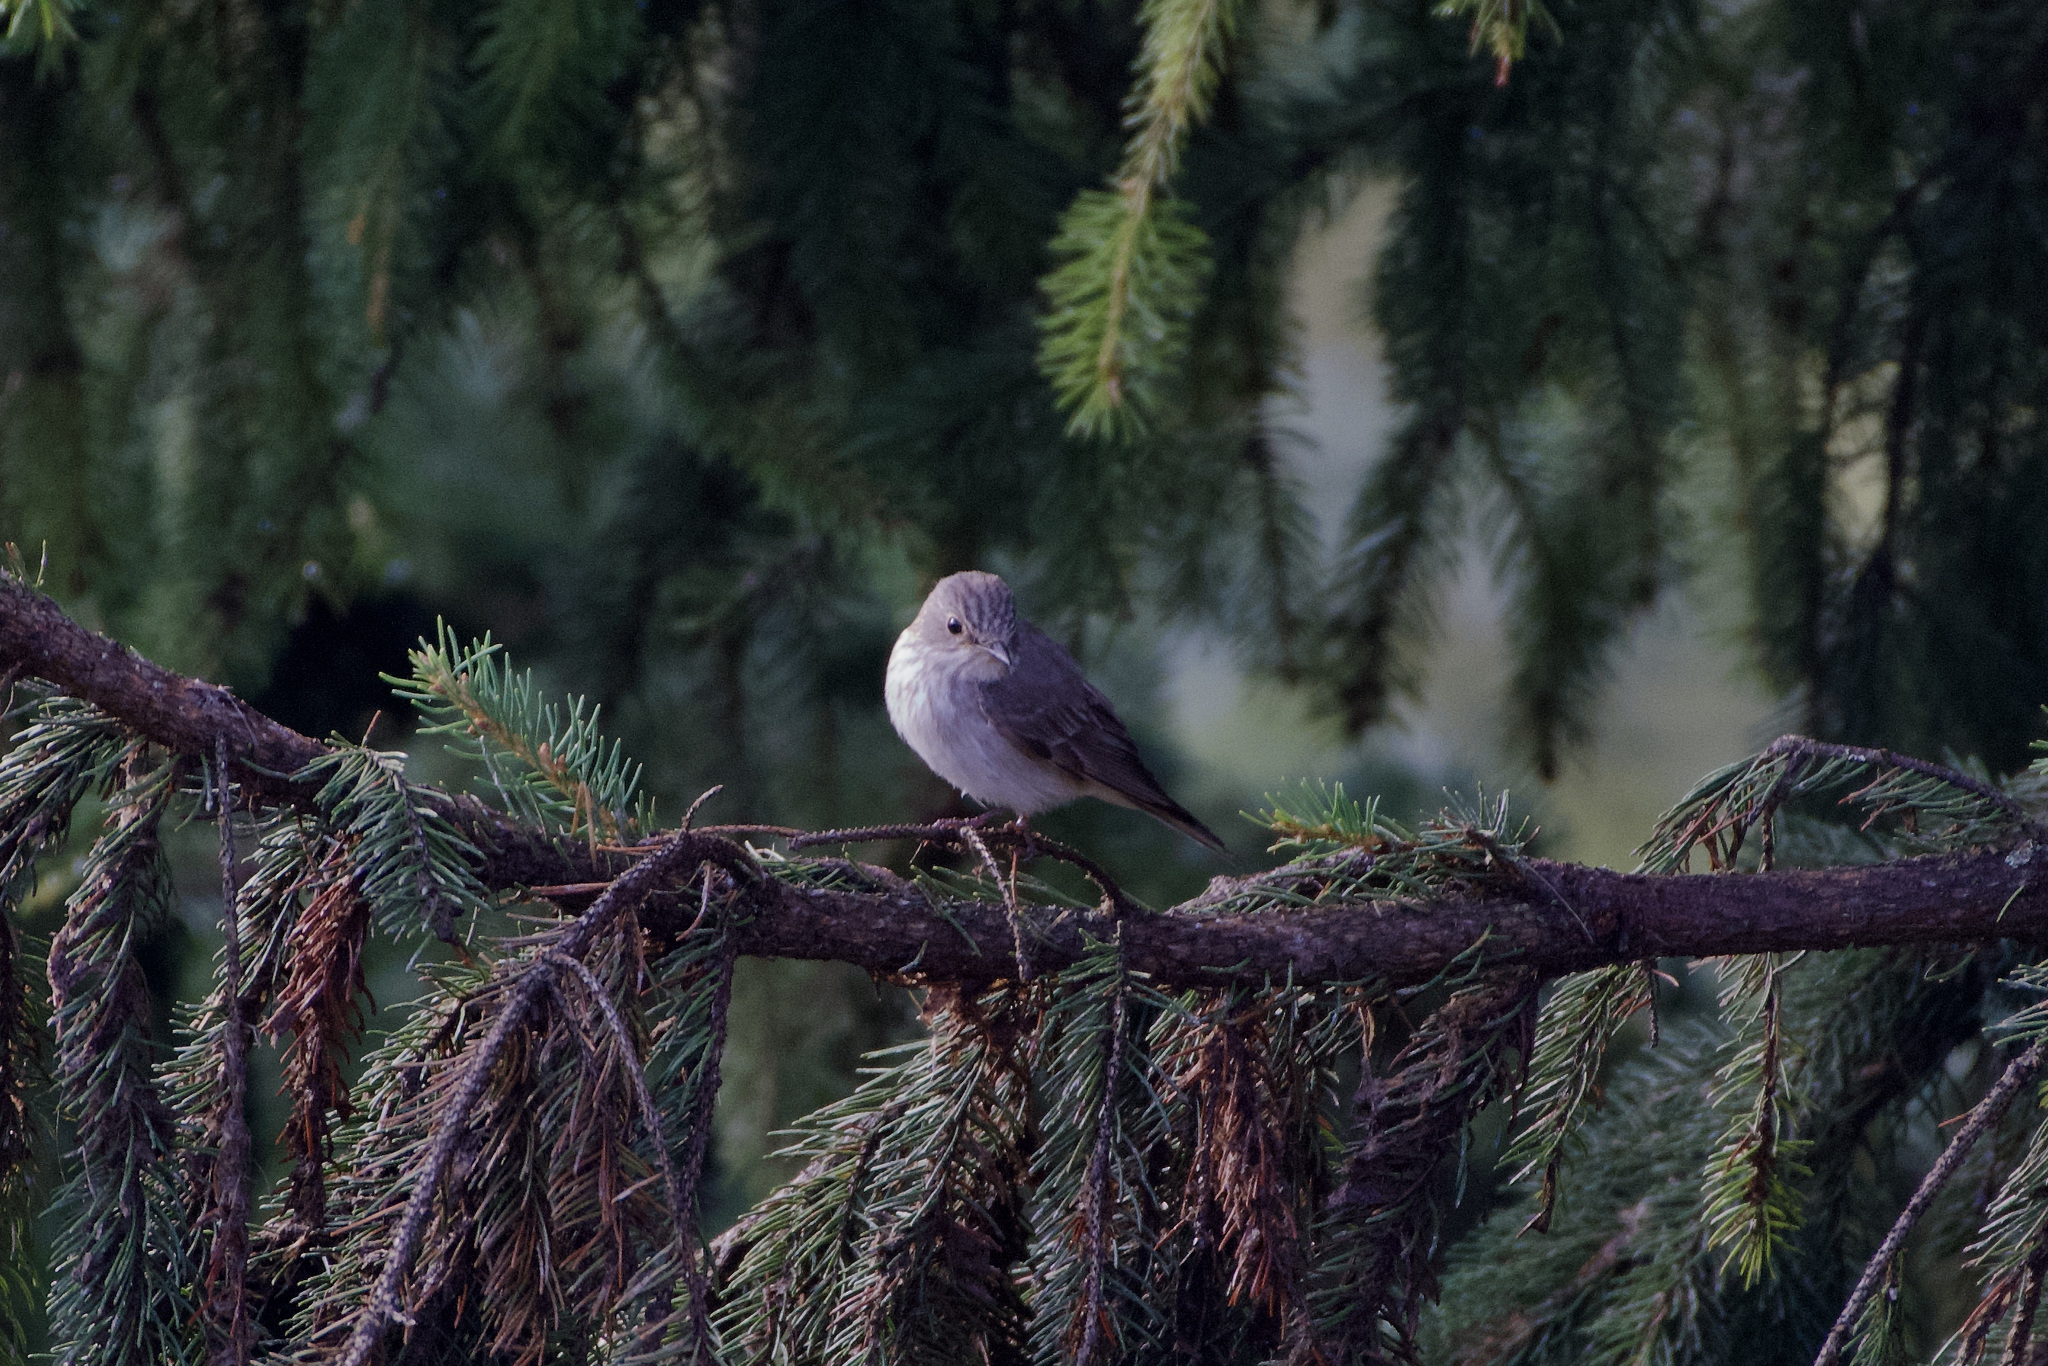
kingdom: Animalia
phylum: Chordata
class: Aves
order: Passeriformes
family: Muscicapidae
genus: Muscicapa
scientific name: Muscicapa striata
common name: Spotted flycatcher
